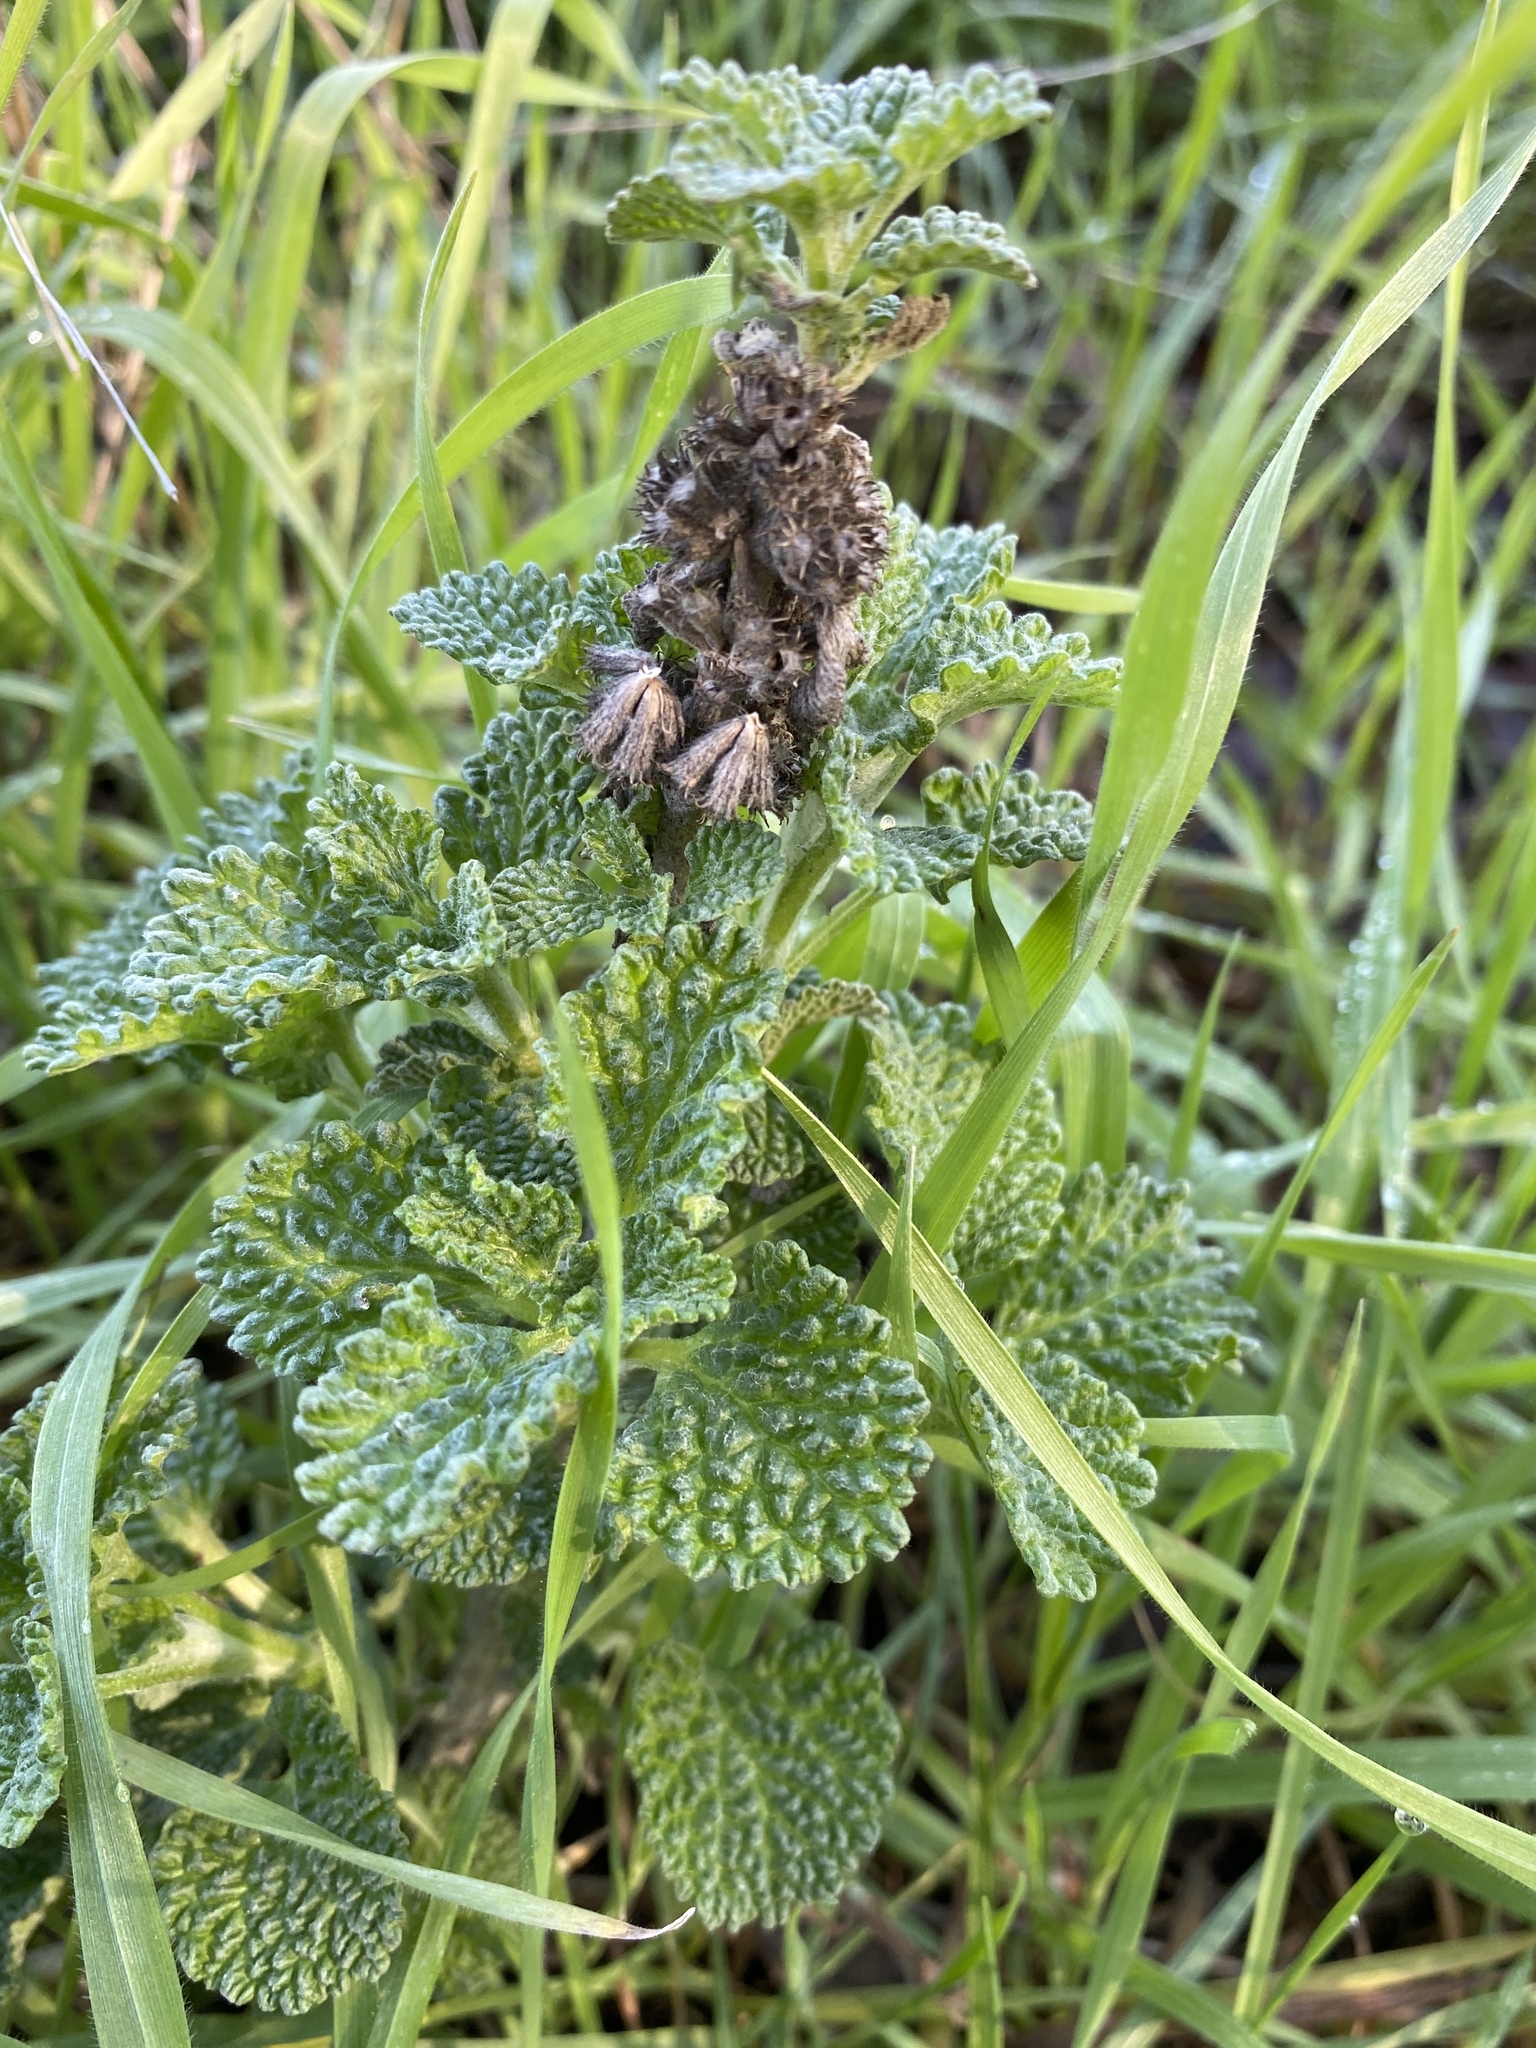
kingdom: Plantae
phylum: Tracheophyta
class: Magnoliopsida
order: Lamiales
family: Lamiaceae
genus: Marrubium
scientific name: Marrubium vulgare
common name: Horehound
